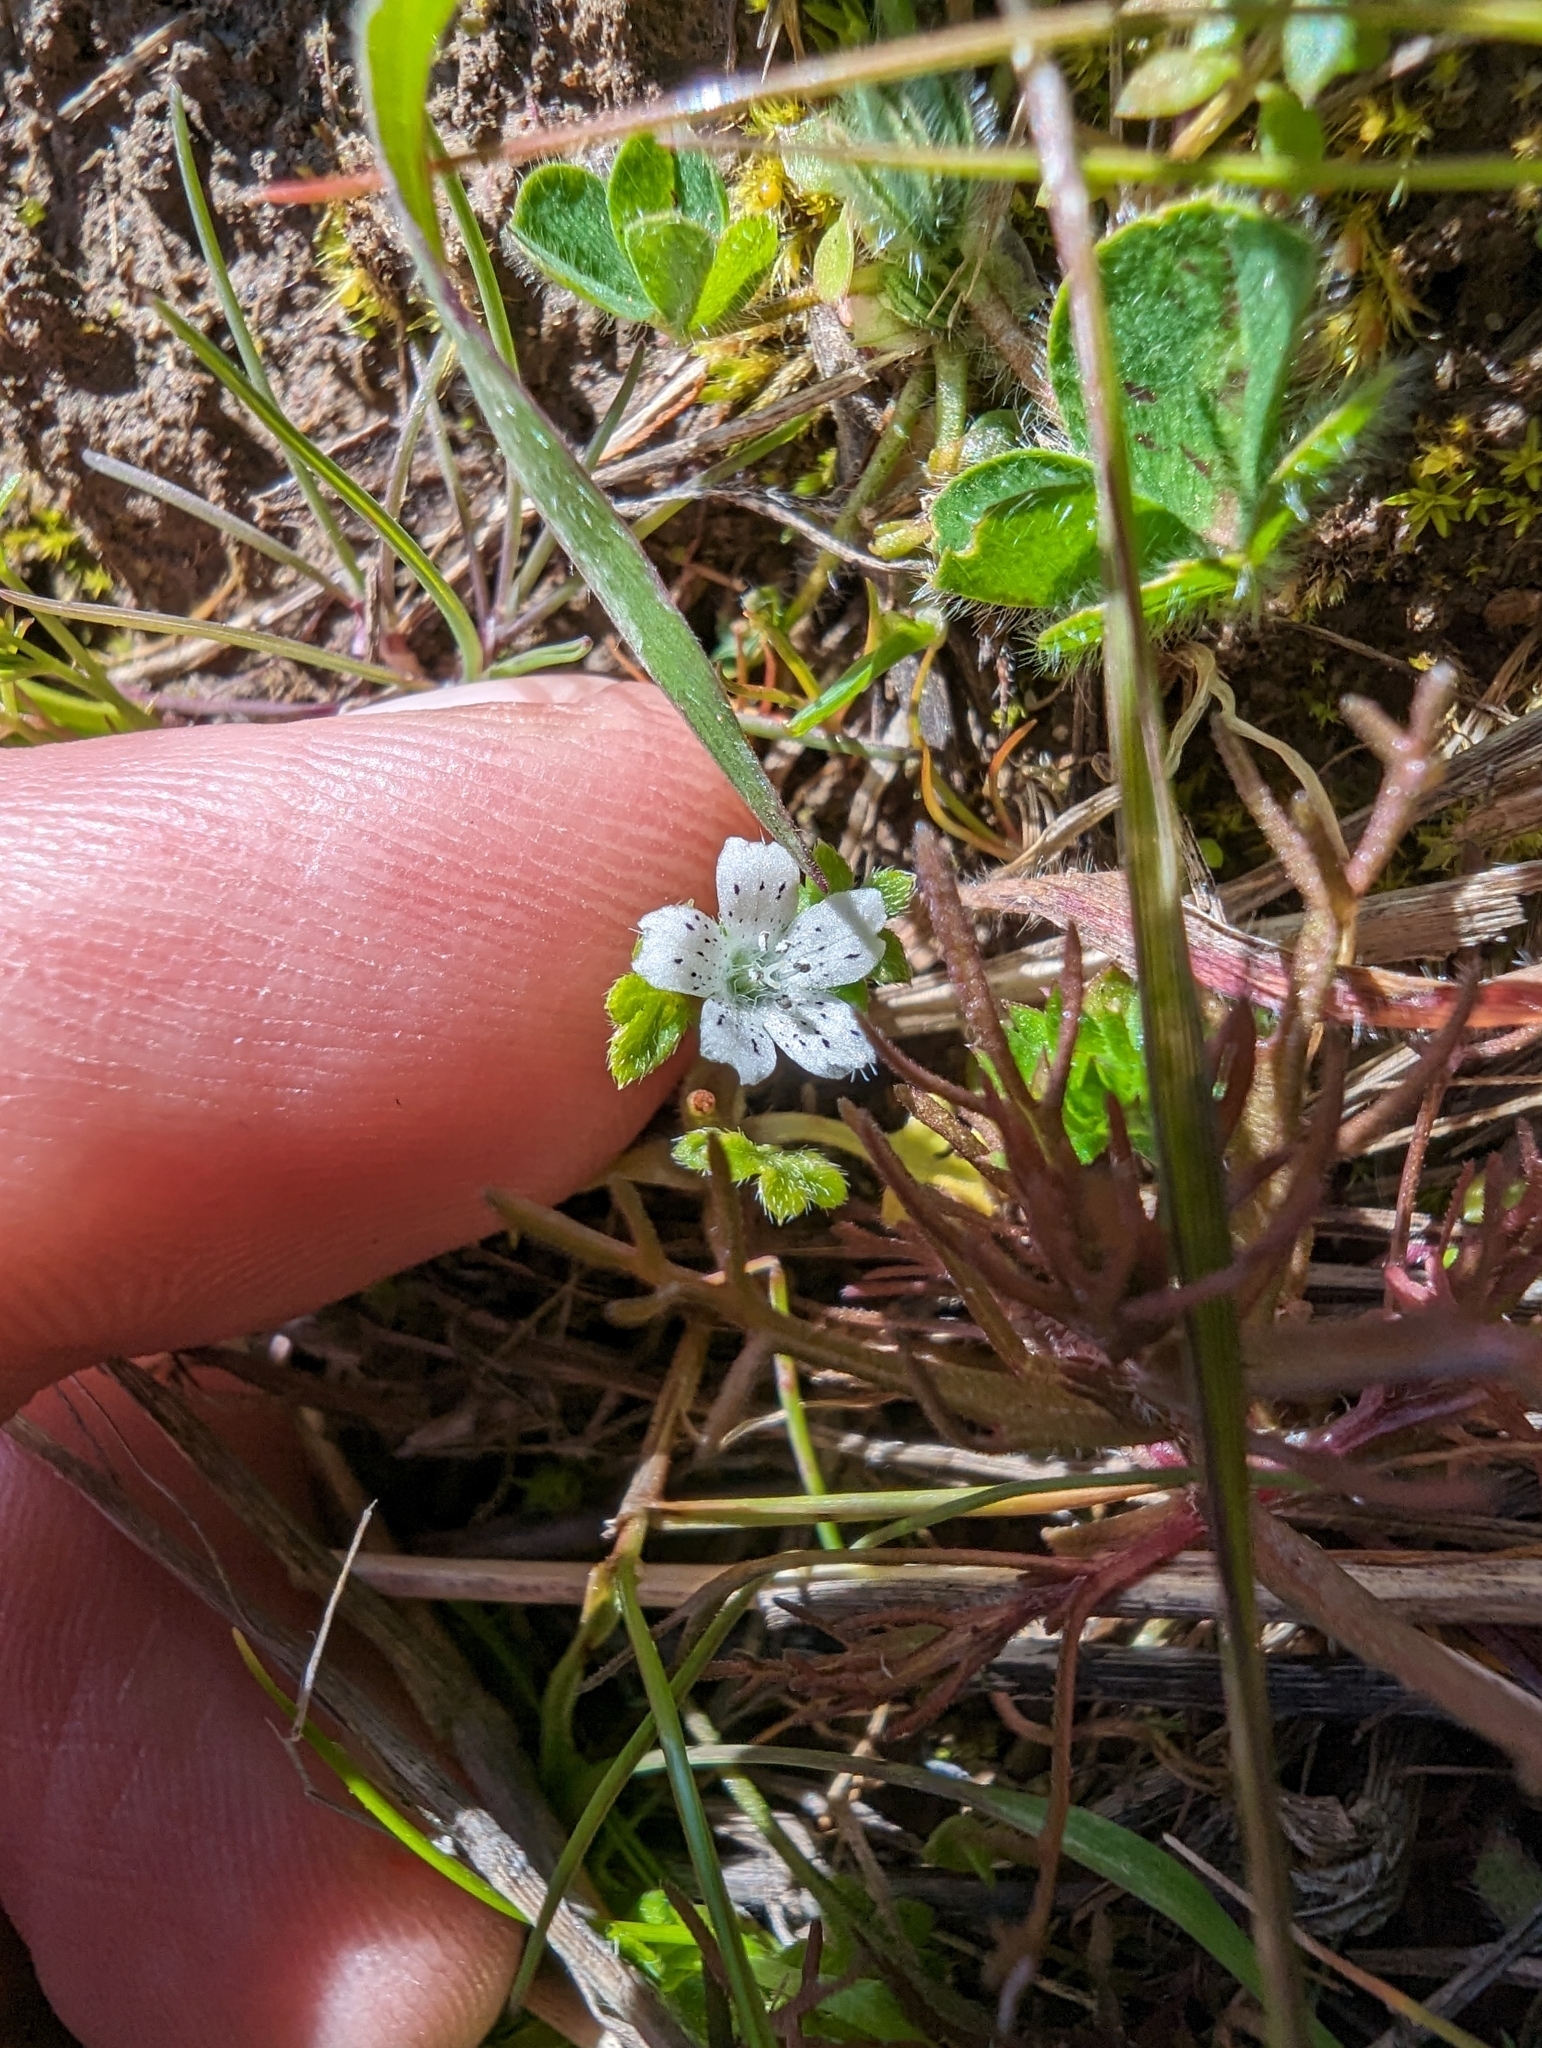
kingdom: Plantae
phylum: Tracheophyta
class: Magnoliopsida
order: Boraginales
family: Hydrophyllaceae
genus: Nemophila
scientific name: Nemophila pedunculata
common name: Little-foot baby-blue-eyes
